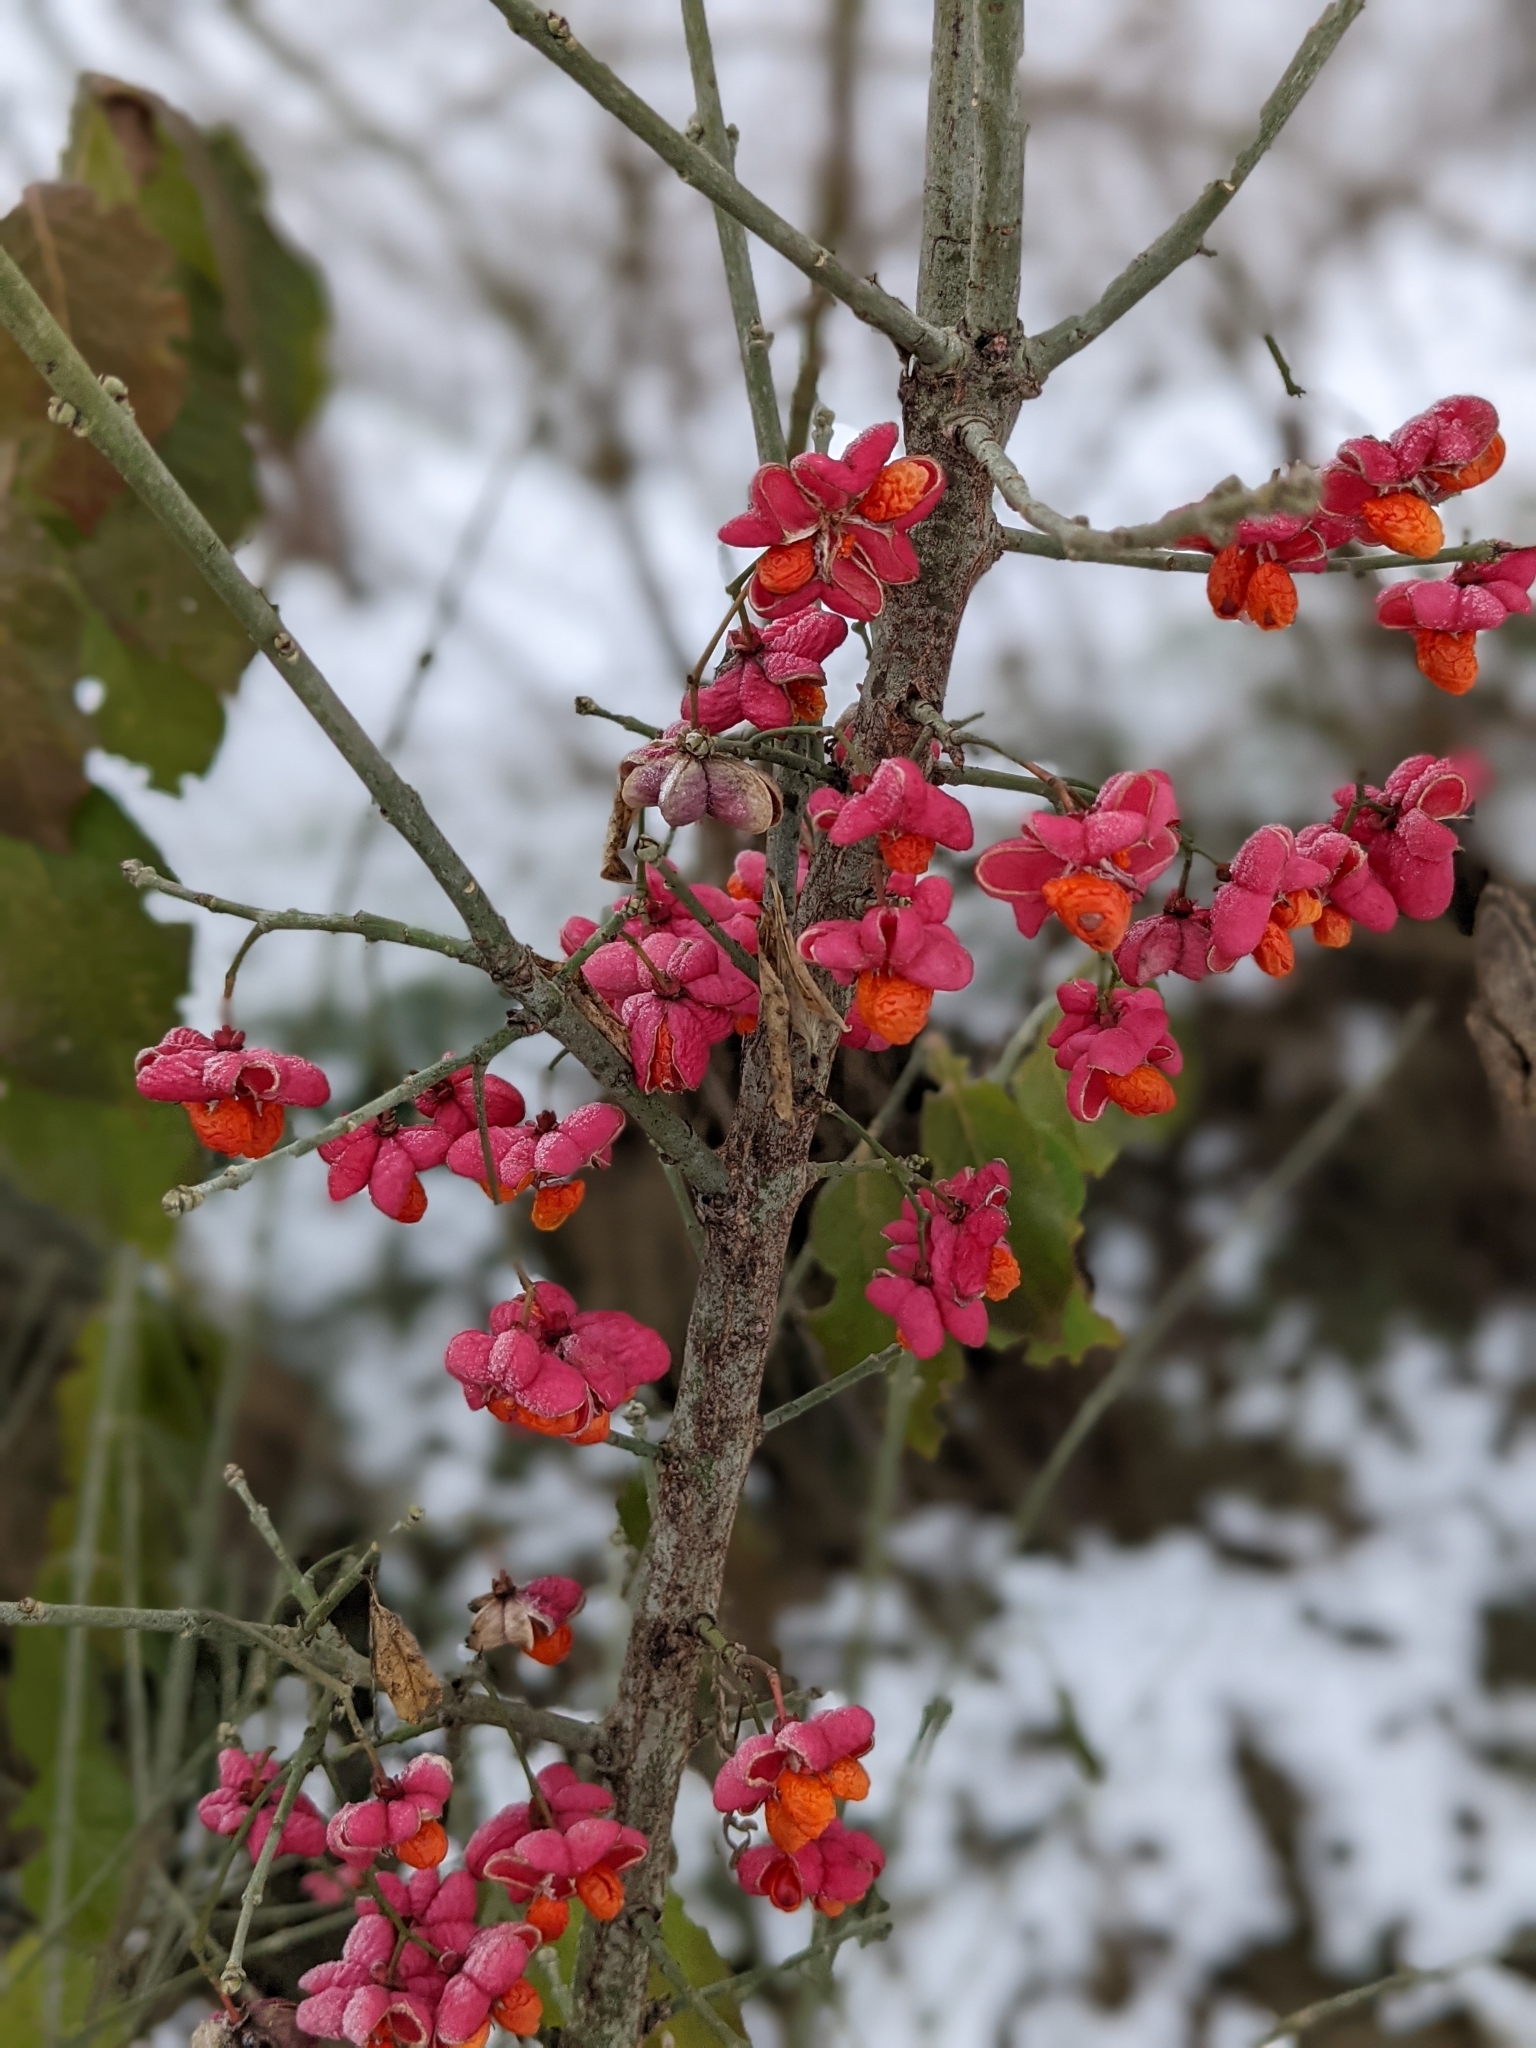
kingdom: Plantae
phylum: Tracheophyta
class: Magnoliopsida
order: Celastrales
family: Celastraceae
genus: Euonymus
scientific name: Euonymus europaeus
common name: Spindle
